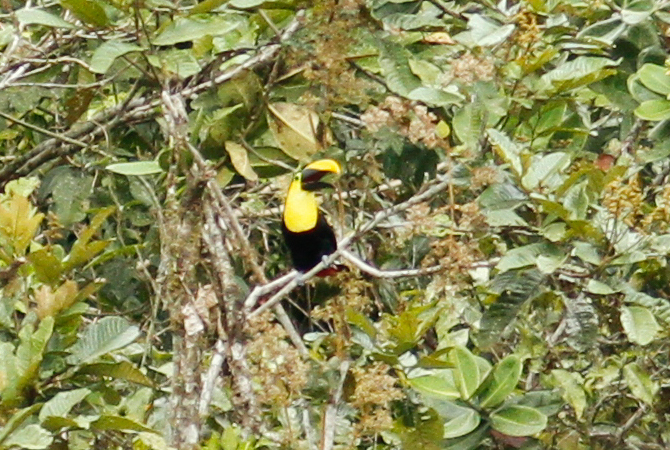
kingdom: Animalia
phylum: Chordata
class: Aves
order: Piciformes
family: Ramphastidae
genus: Ramphastos
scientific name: Ramphastos brevis
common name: Choco toucan
